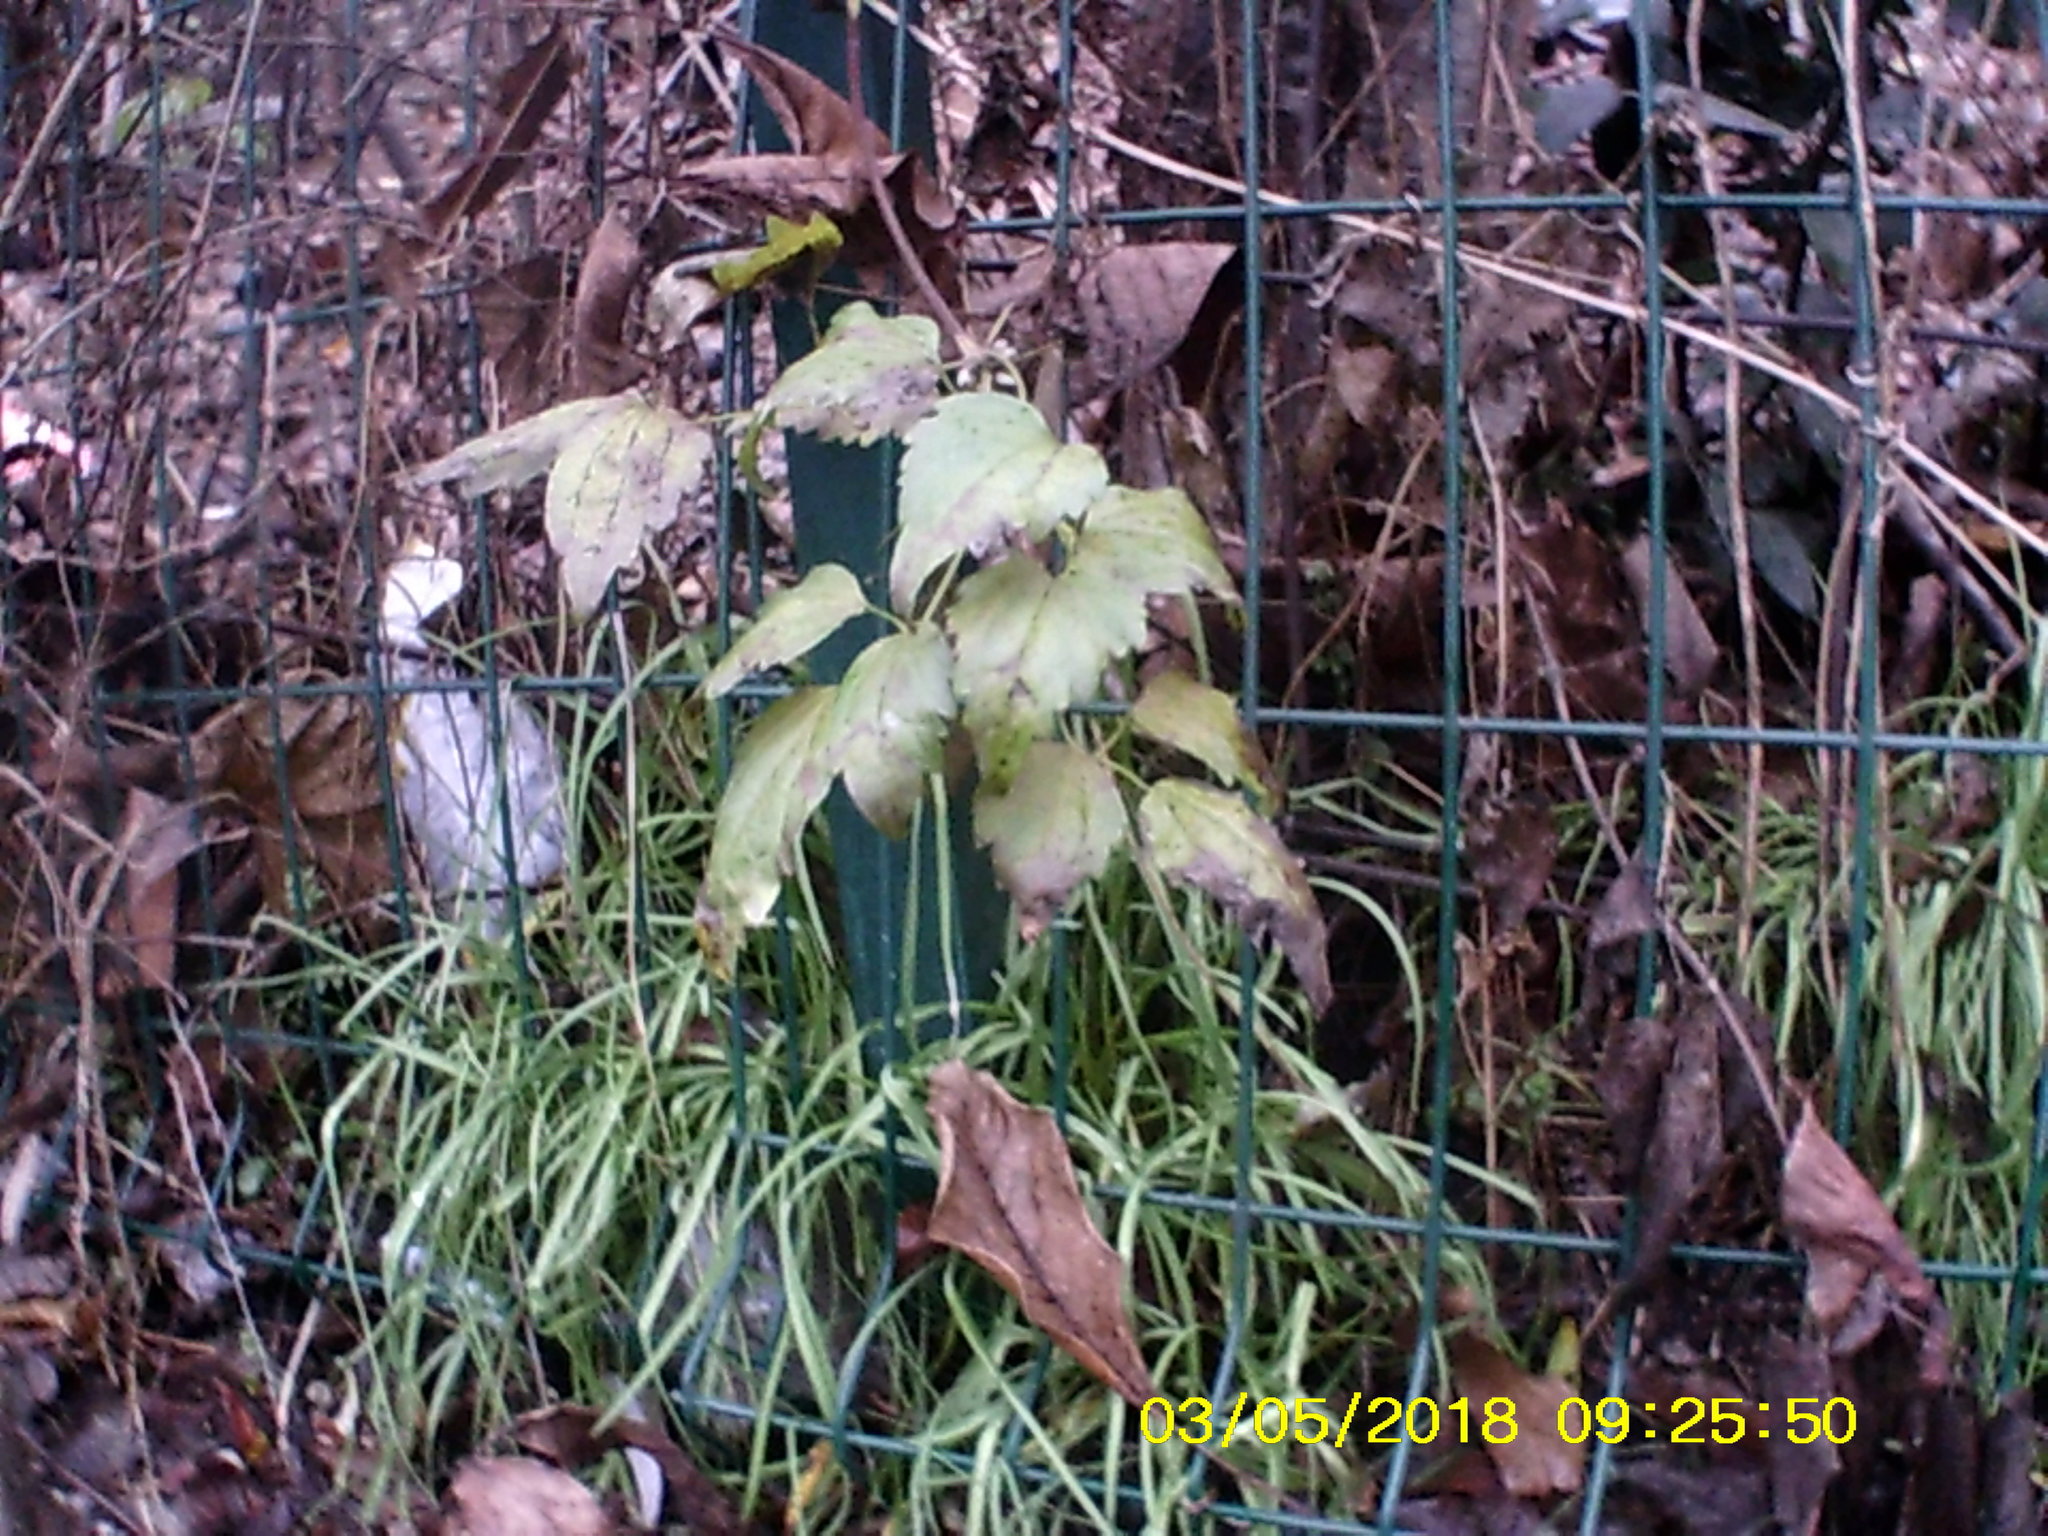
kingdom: Plantae
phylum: Tracheophyta
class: Magnoliopsida
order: Ranunculales
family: Ranunculaceae
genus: Clematis
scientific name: Clematis vitalba
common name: Evergreen clematis
